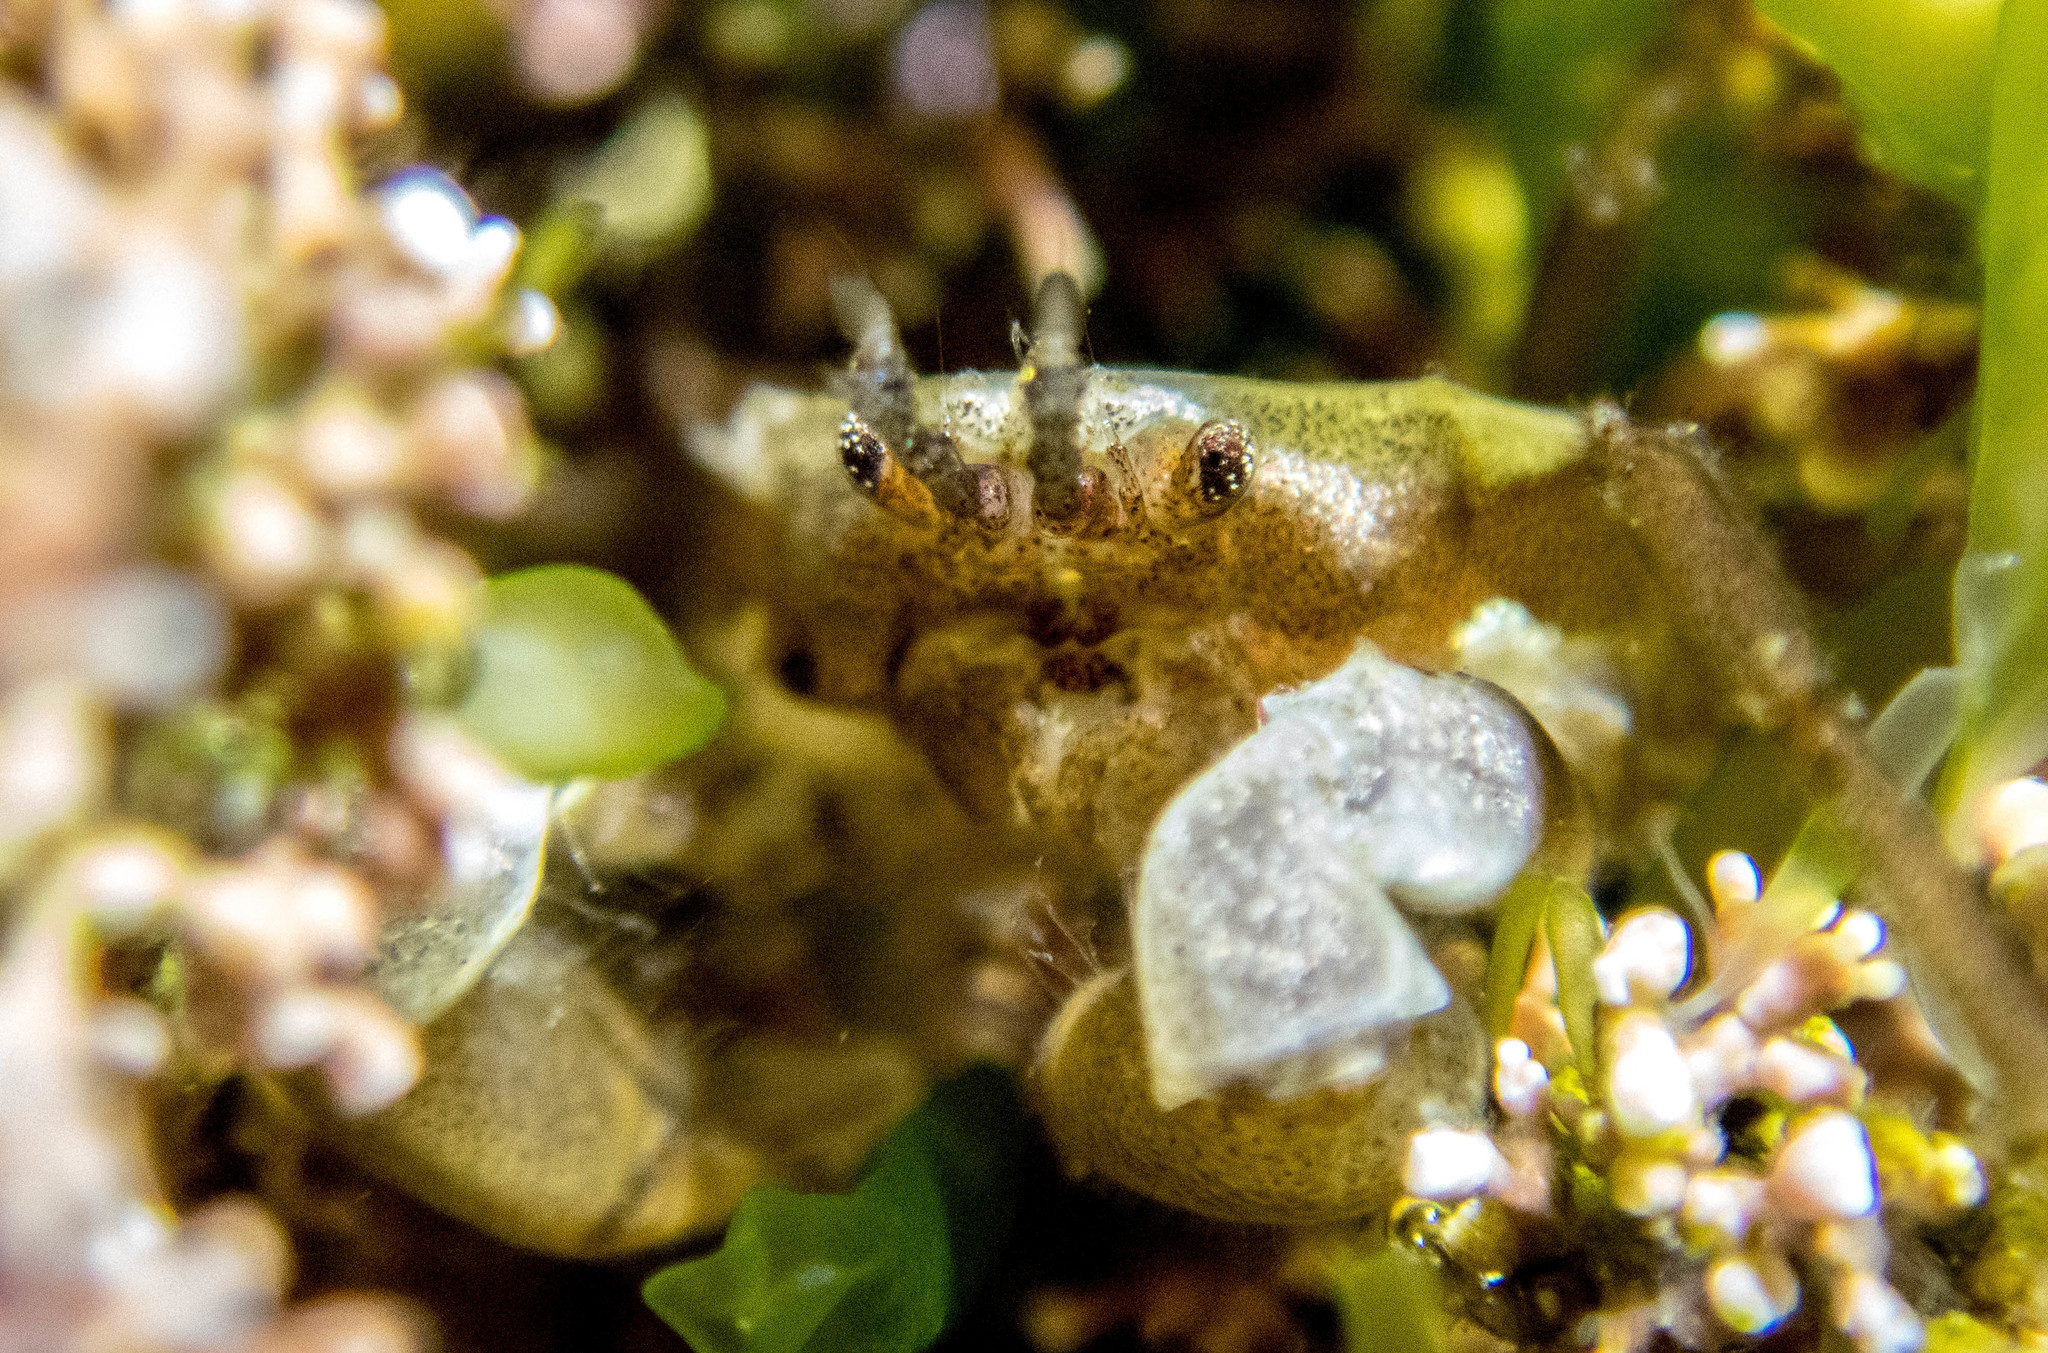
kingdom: Animalia
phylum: Arthropoda
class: Malacostraca
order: Decapoda
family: Hymenosomatidae
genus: Halicarcinus
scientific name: Halicarcinus ovatus
